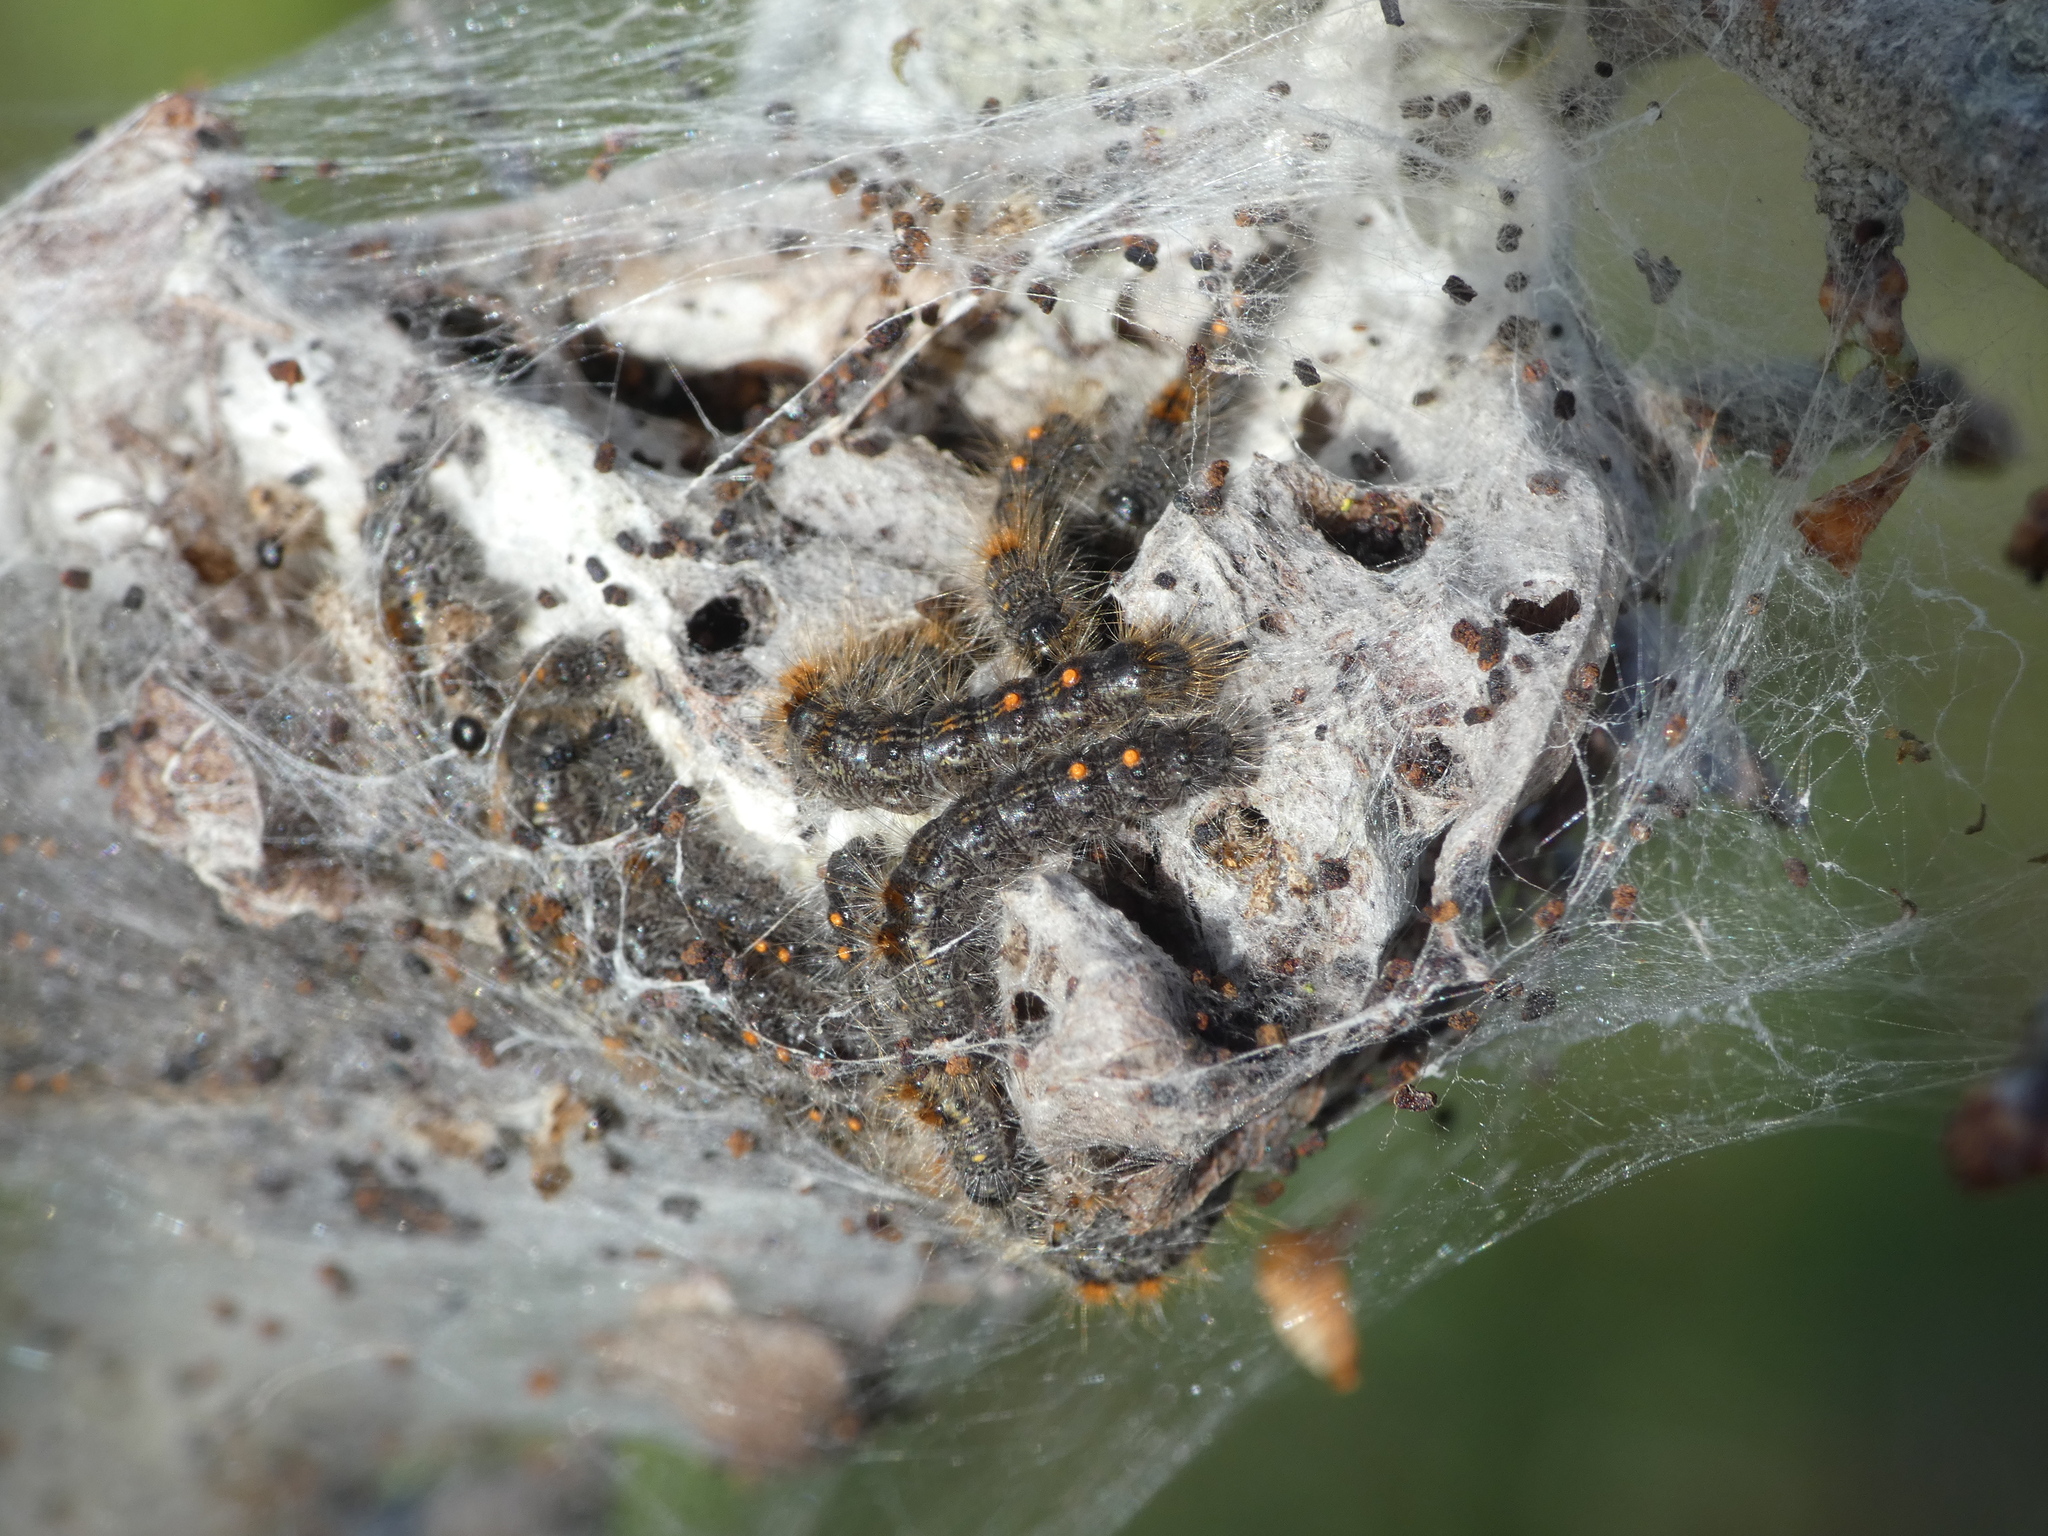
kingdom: Animalia
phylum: Arthropoda
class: Insecta
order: Lepidoptera
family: Erebidae
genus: Euproctis
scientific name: Euproctis chrysorrhoea
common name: Brown-tail
